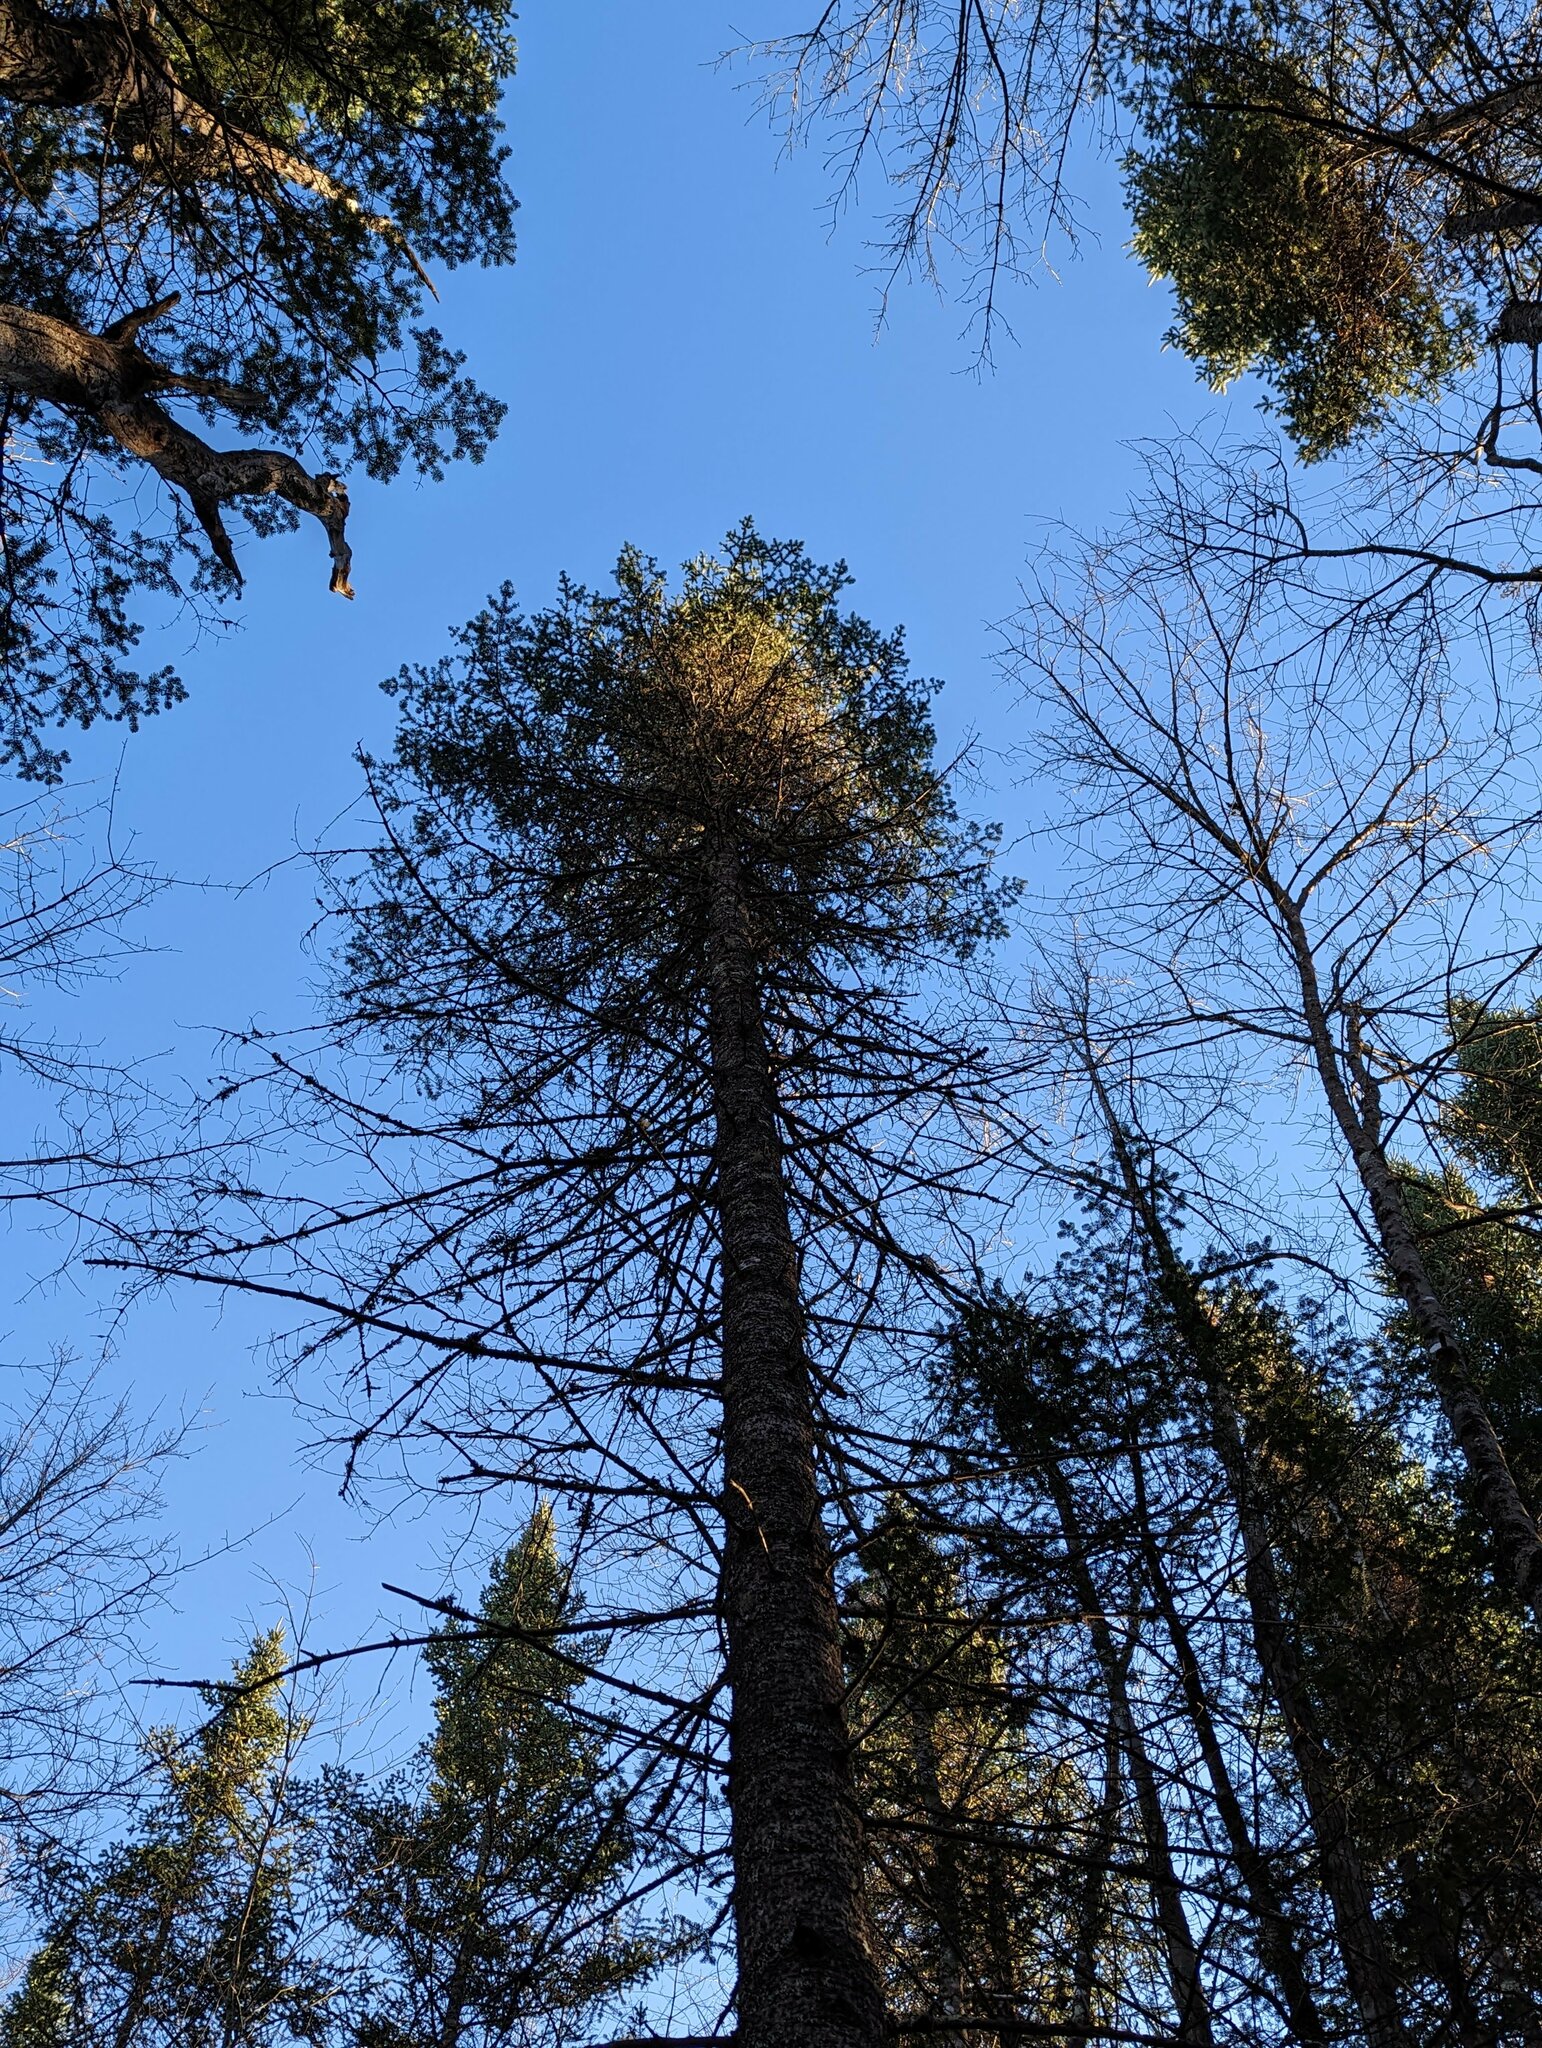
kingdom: Plantae
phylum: Tracheophyta
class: Pinopsida
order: Pinales
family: Pinaceae
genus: Abies
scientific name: Abies balsamea
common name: Balsam fir
